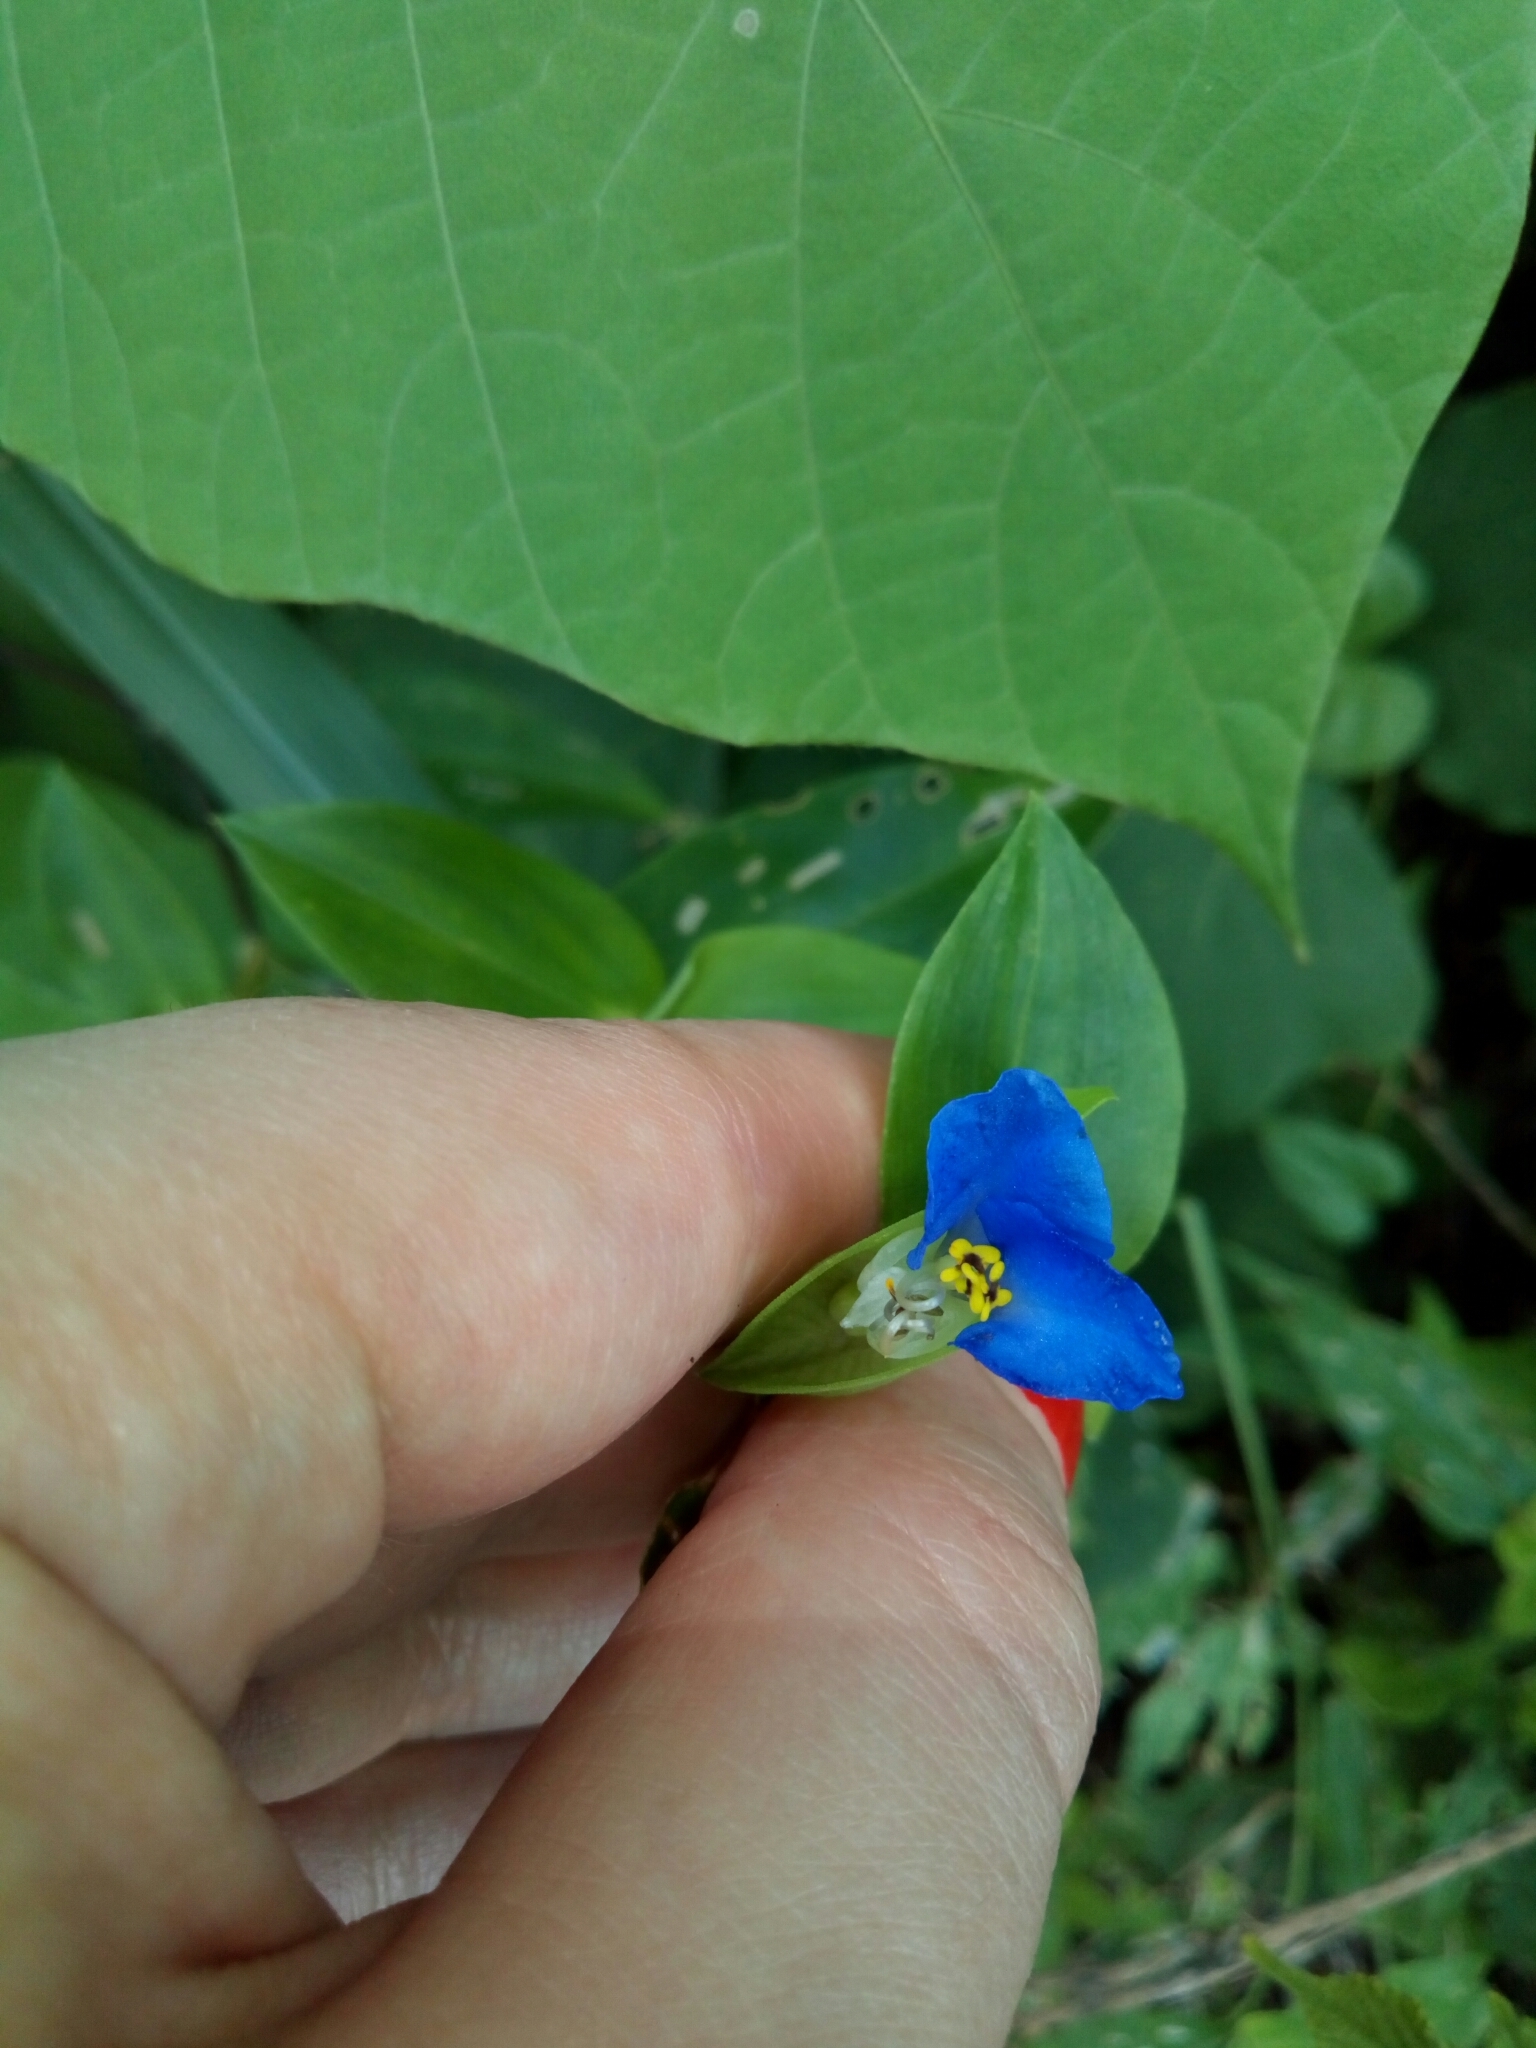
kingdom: Plantae
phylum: Tracheophyta
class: Liliopsida
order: Commelinales
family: Commelinaceae
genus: Commelina
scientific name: Commelina communis
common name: Asiatic dayflower
